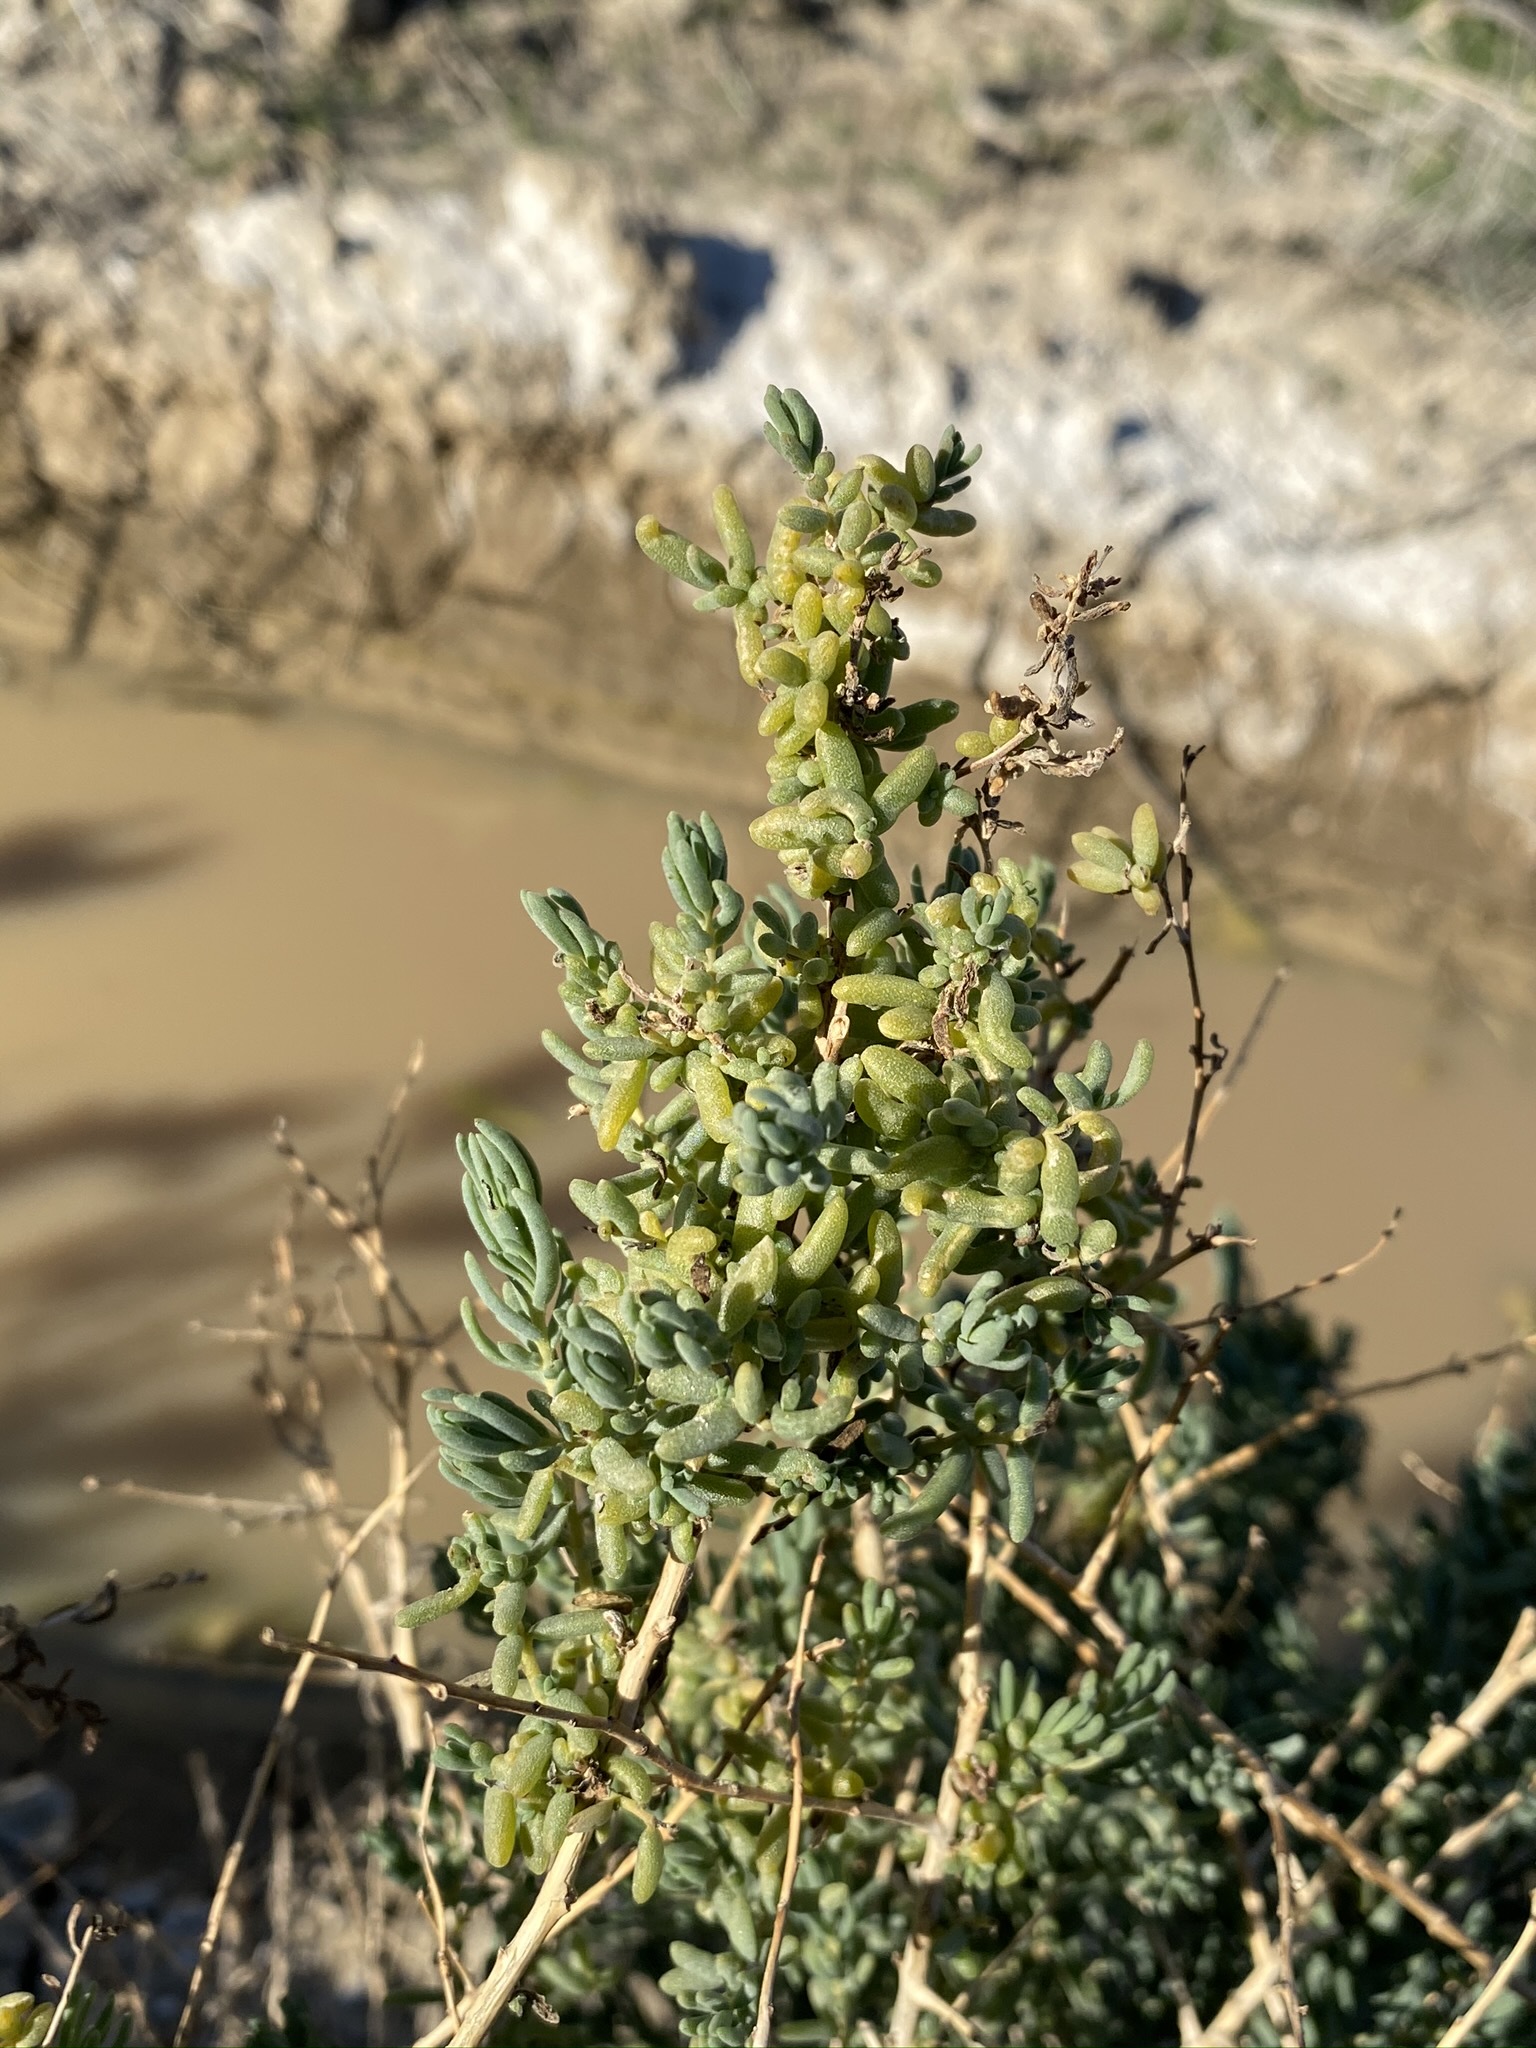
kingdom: Plantae
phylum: Tracheophyta
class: Magnoliopsida
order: Caryophyllales
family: Amaranthaceae
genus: Suaeda
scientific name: Suaeda nigra
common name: Bush seepweed
